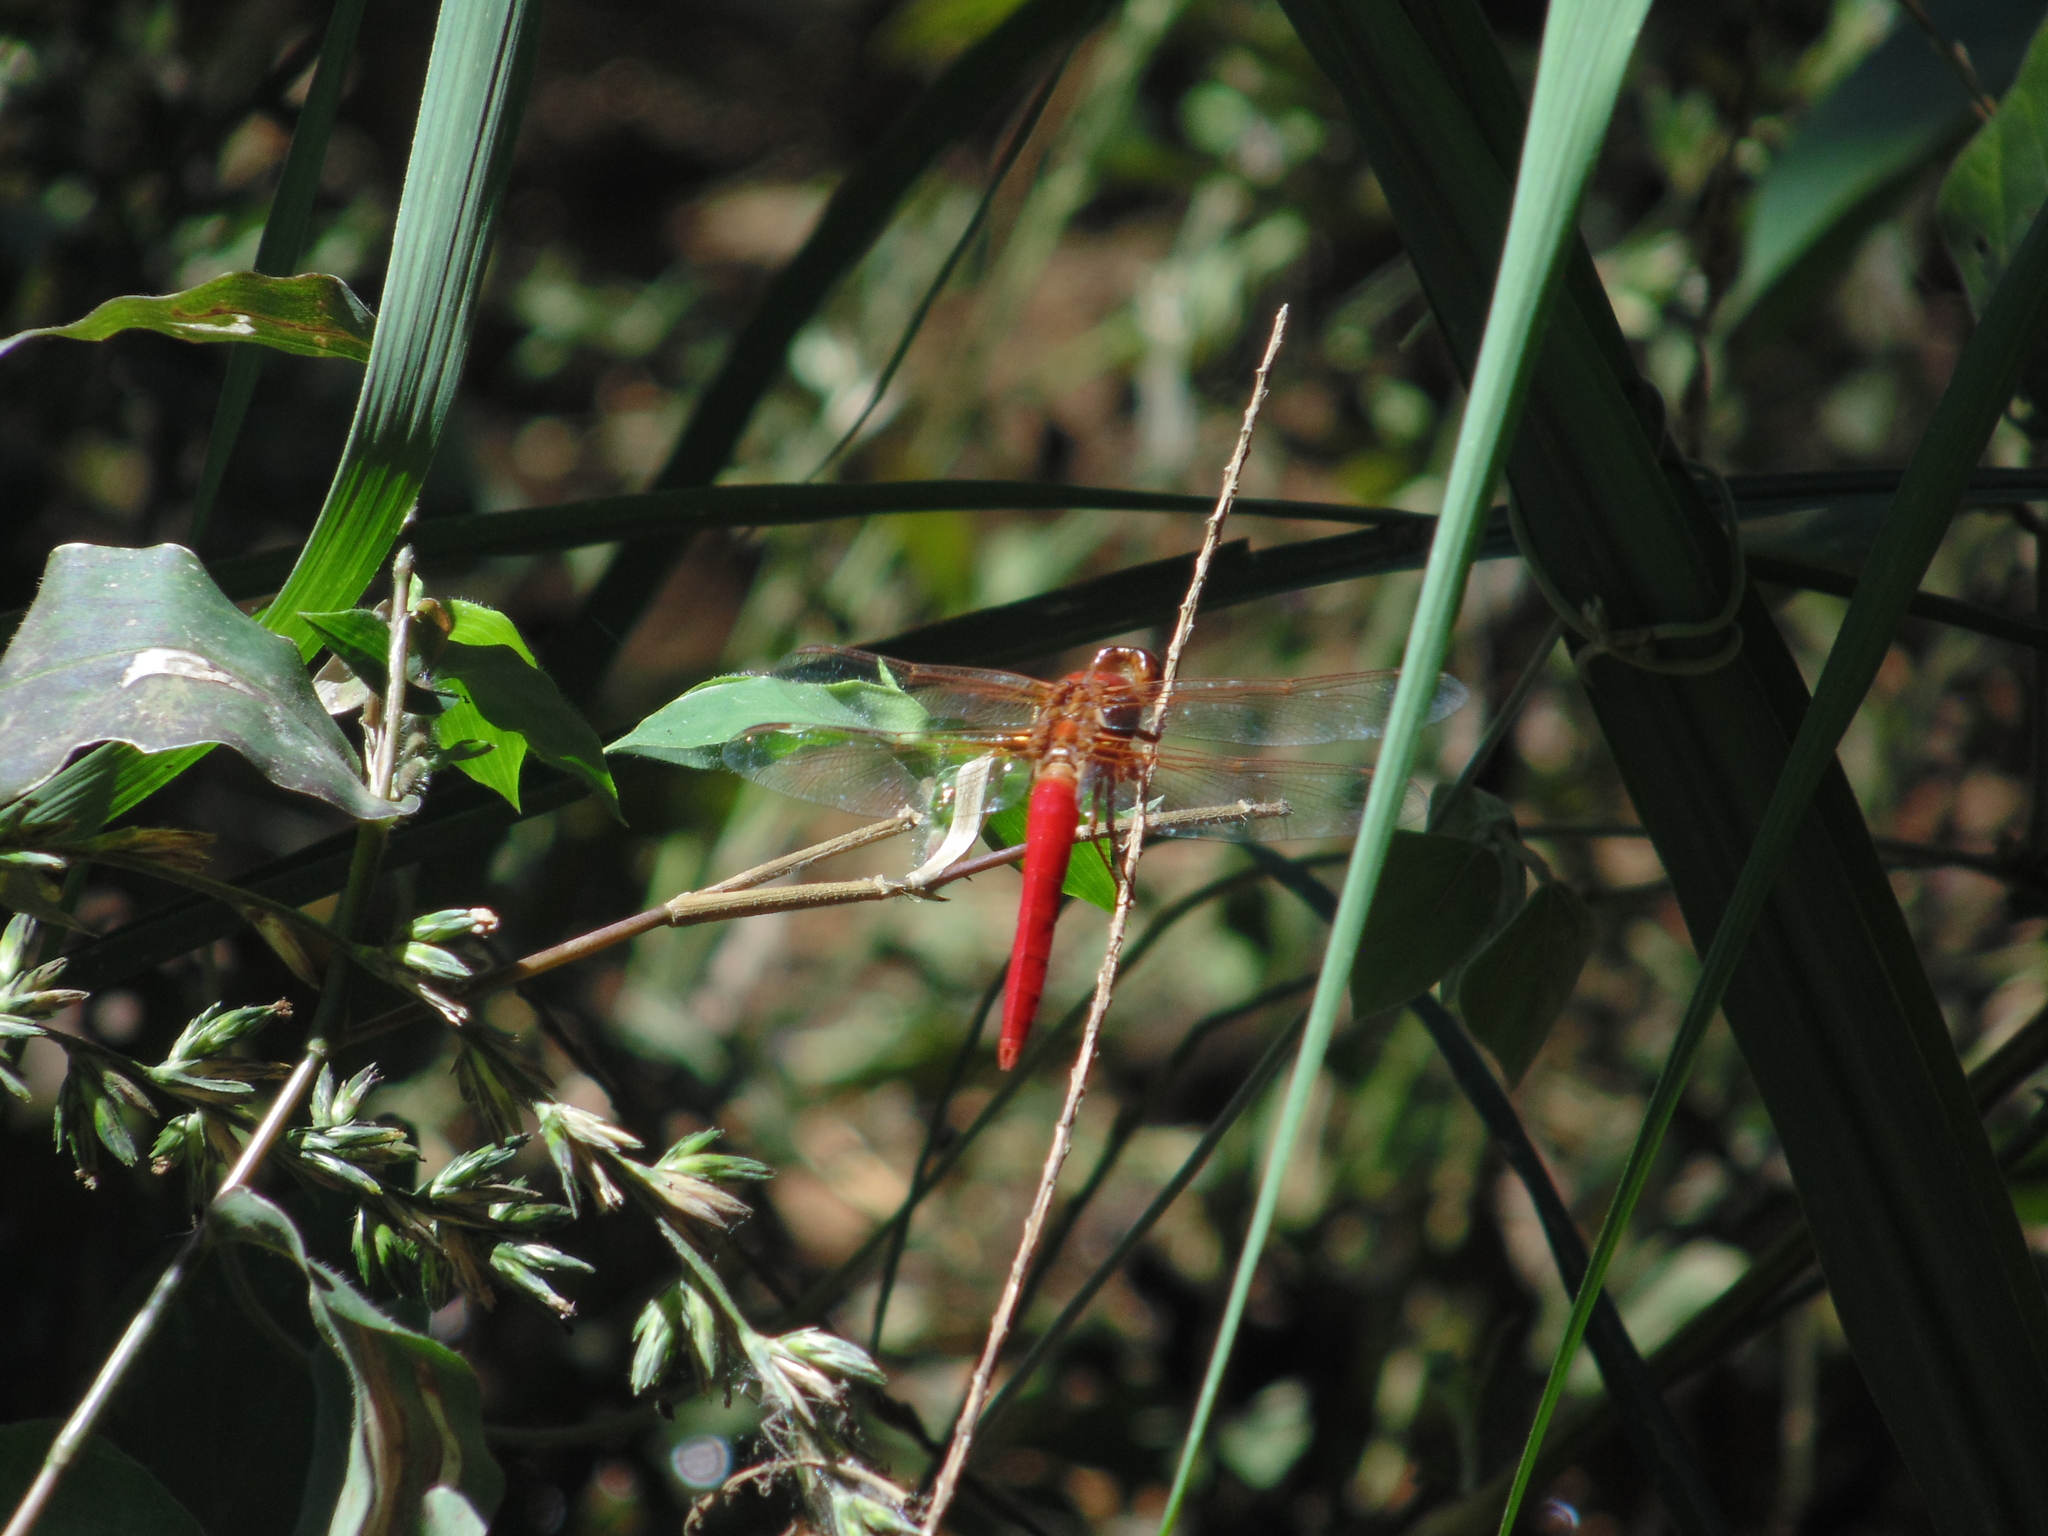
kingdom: Animalia
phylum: Arthropoda
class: Insecta
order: Odonata
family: Libellulidae
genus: Libellula
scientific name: Libellula croceipennis
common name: Neon skimmer
